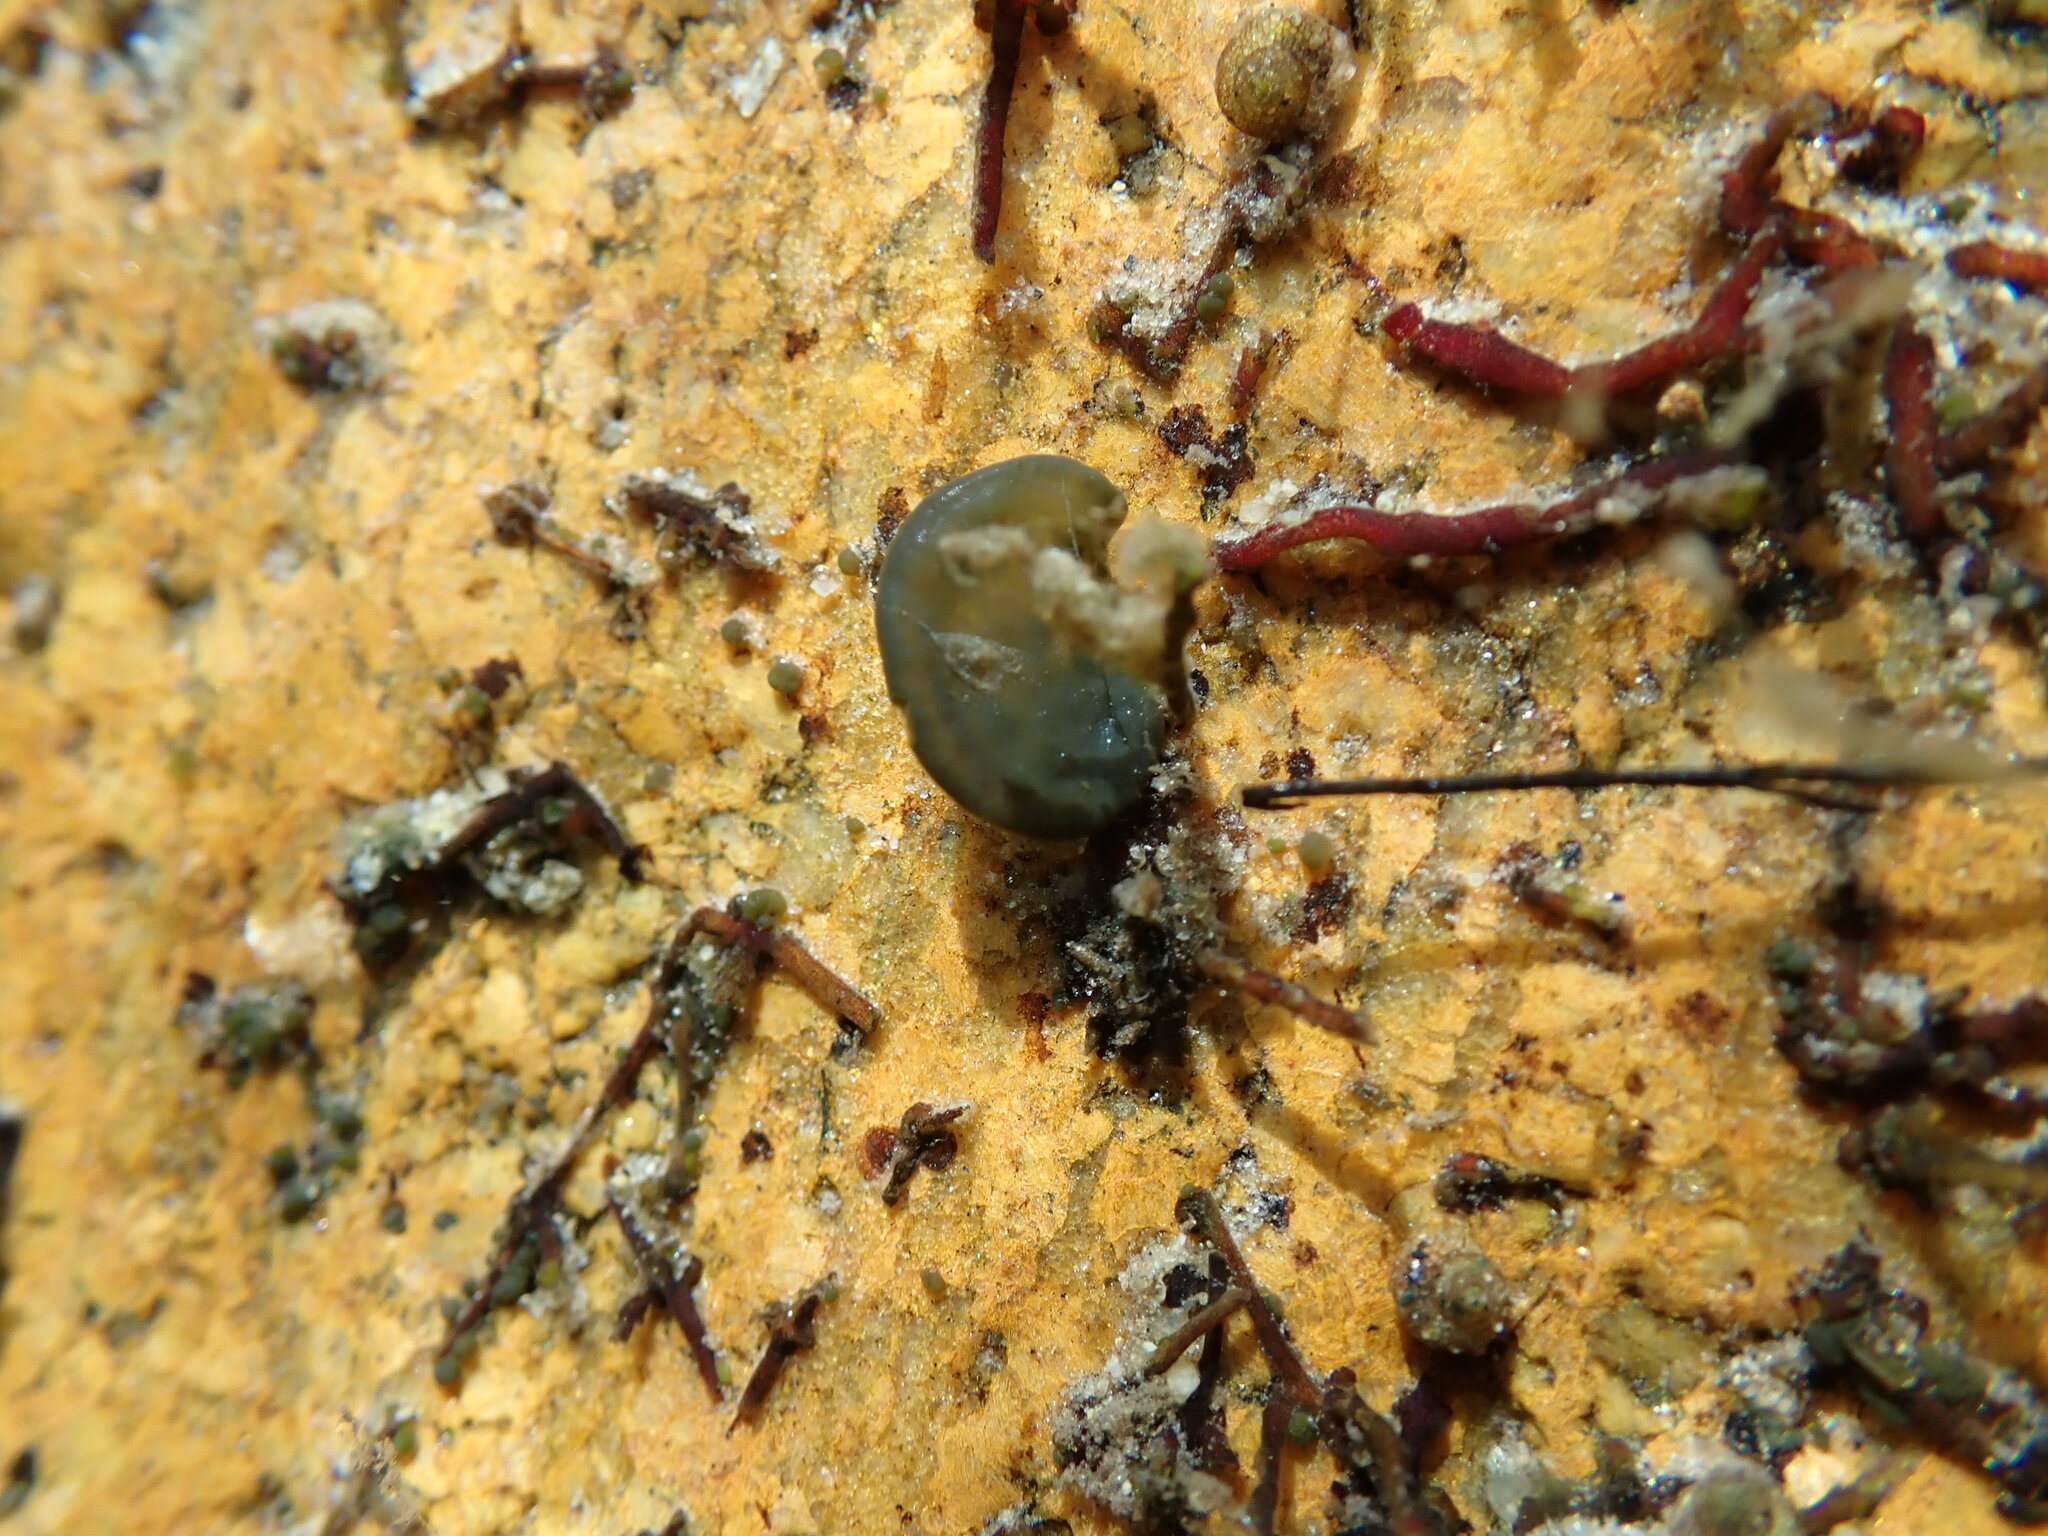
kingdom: Bacteria
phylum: Cyanobacteria
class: Cyanobacteriia
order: Cyanobacteriales
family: Nostocaceae
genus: Nostoc
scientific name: Nostoc parmelioides
